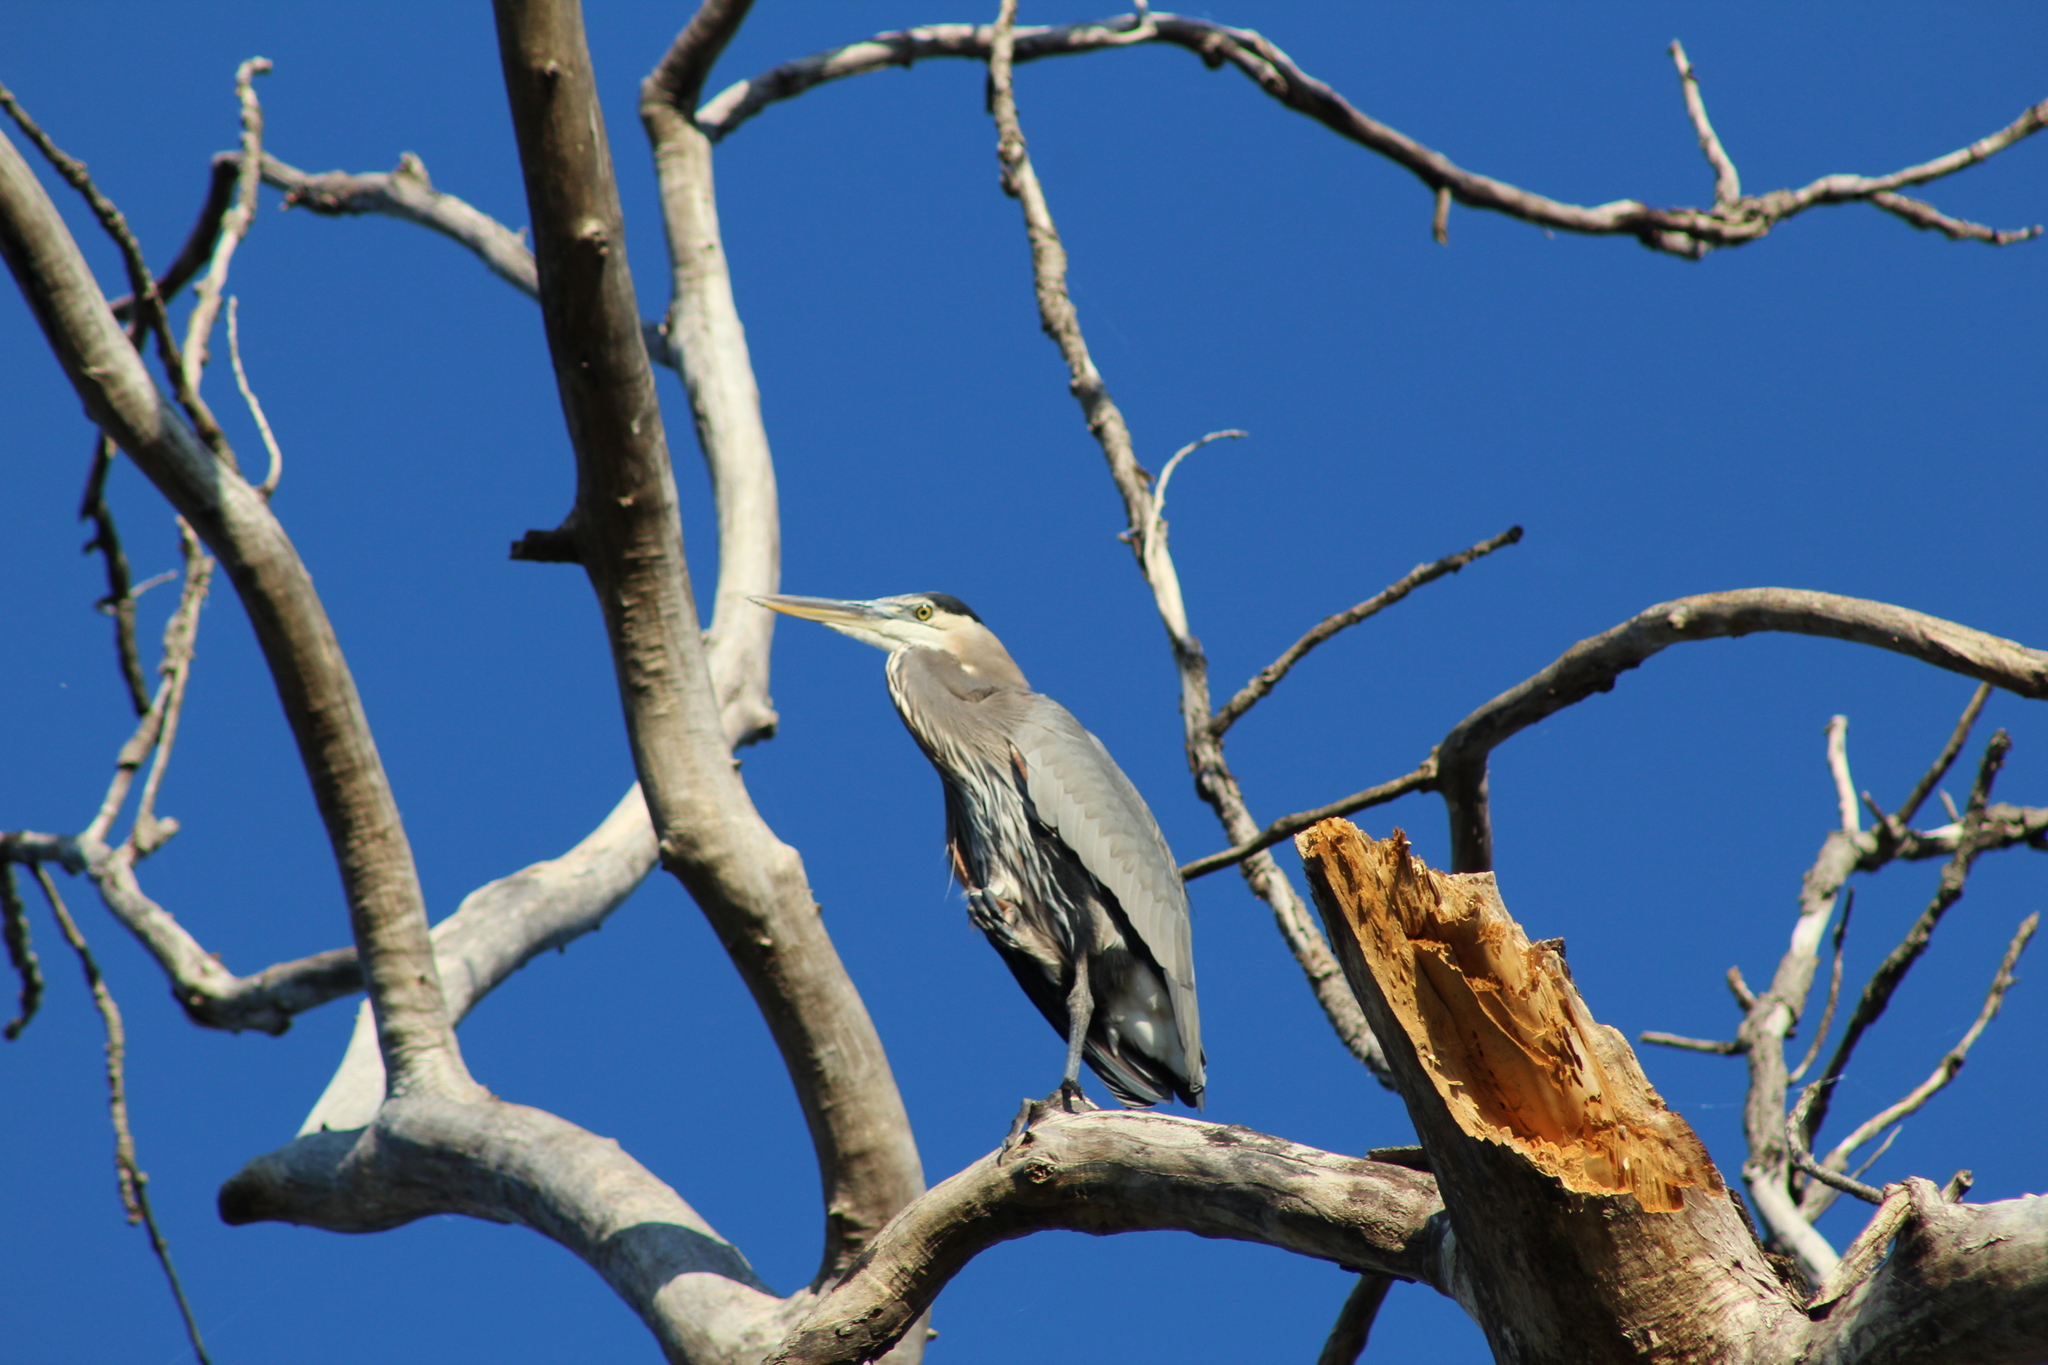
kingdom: Animalia
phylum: Chordata
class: Aves
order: Pelecaniformes
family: Ardeidae
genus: Ardea
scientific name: Ardea herodias
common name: Great blue heron
